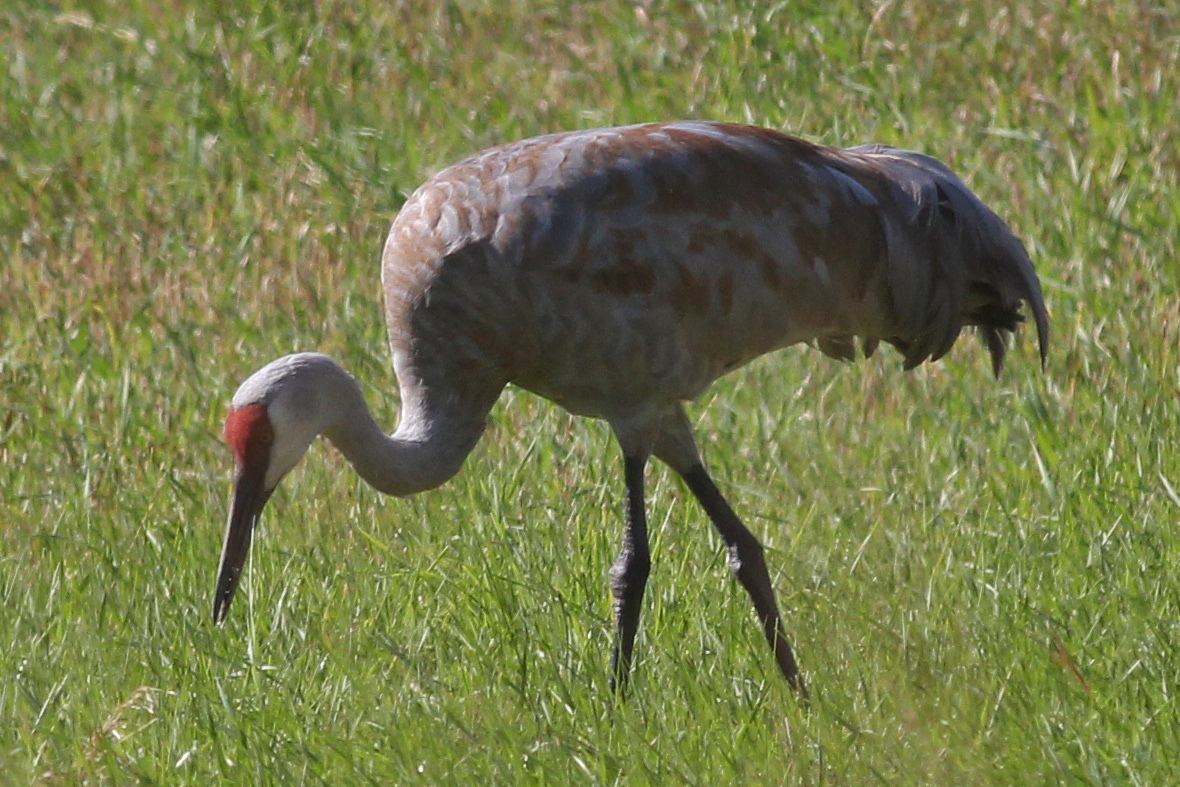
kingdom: Animalia
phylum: Chordata
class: Aves
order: Gruiformes
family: Gruidae
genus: Grus
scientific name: Grus canadensis
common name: Sandhill crane
